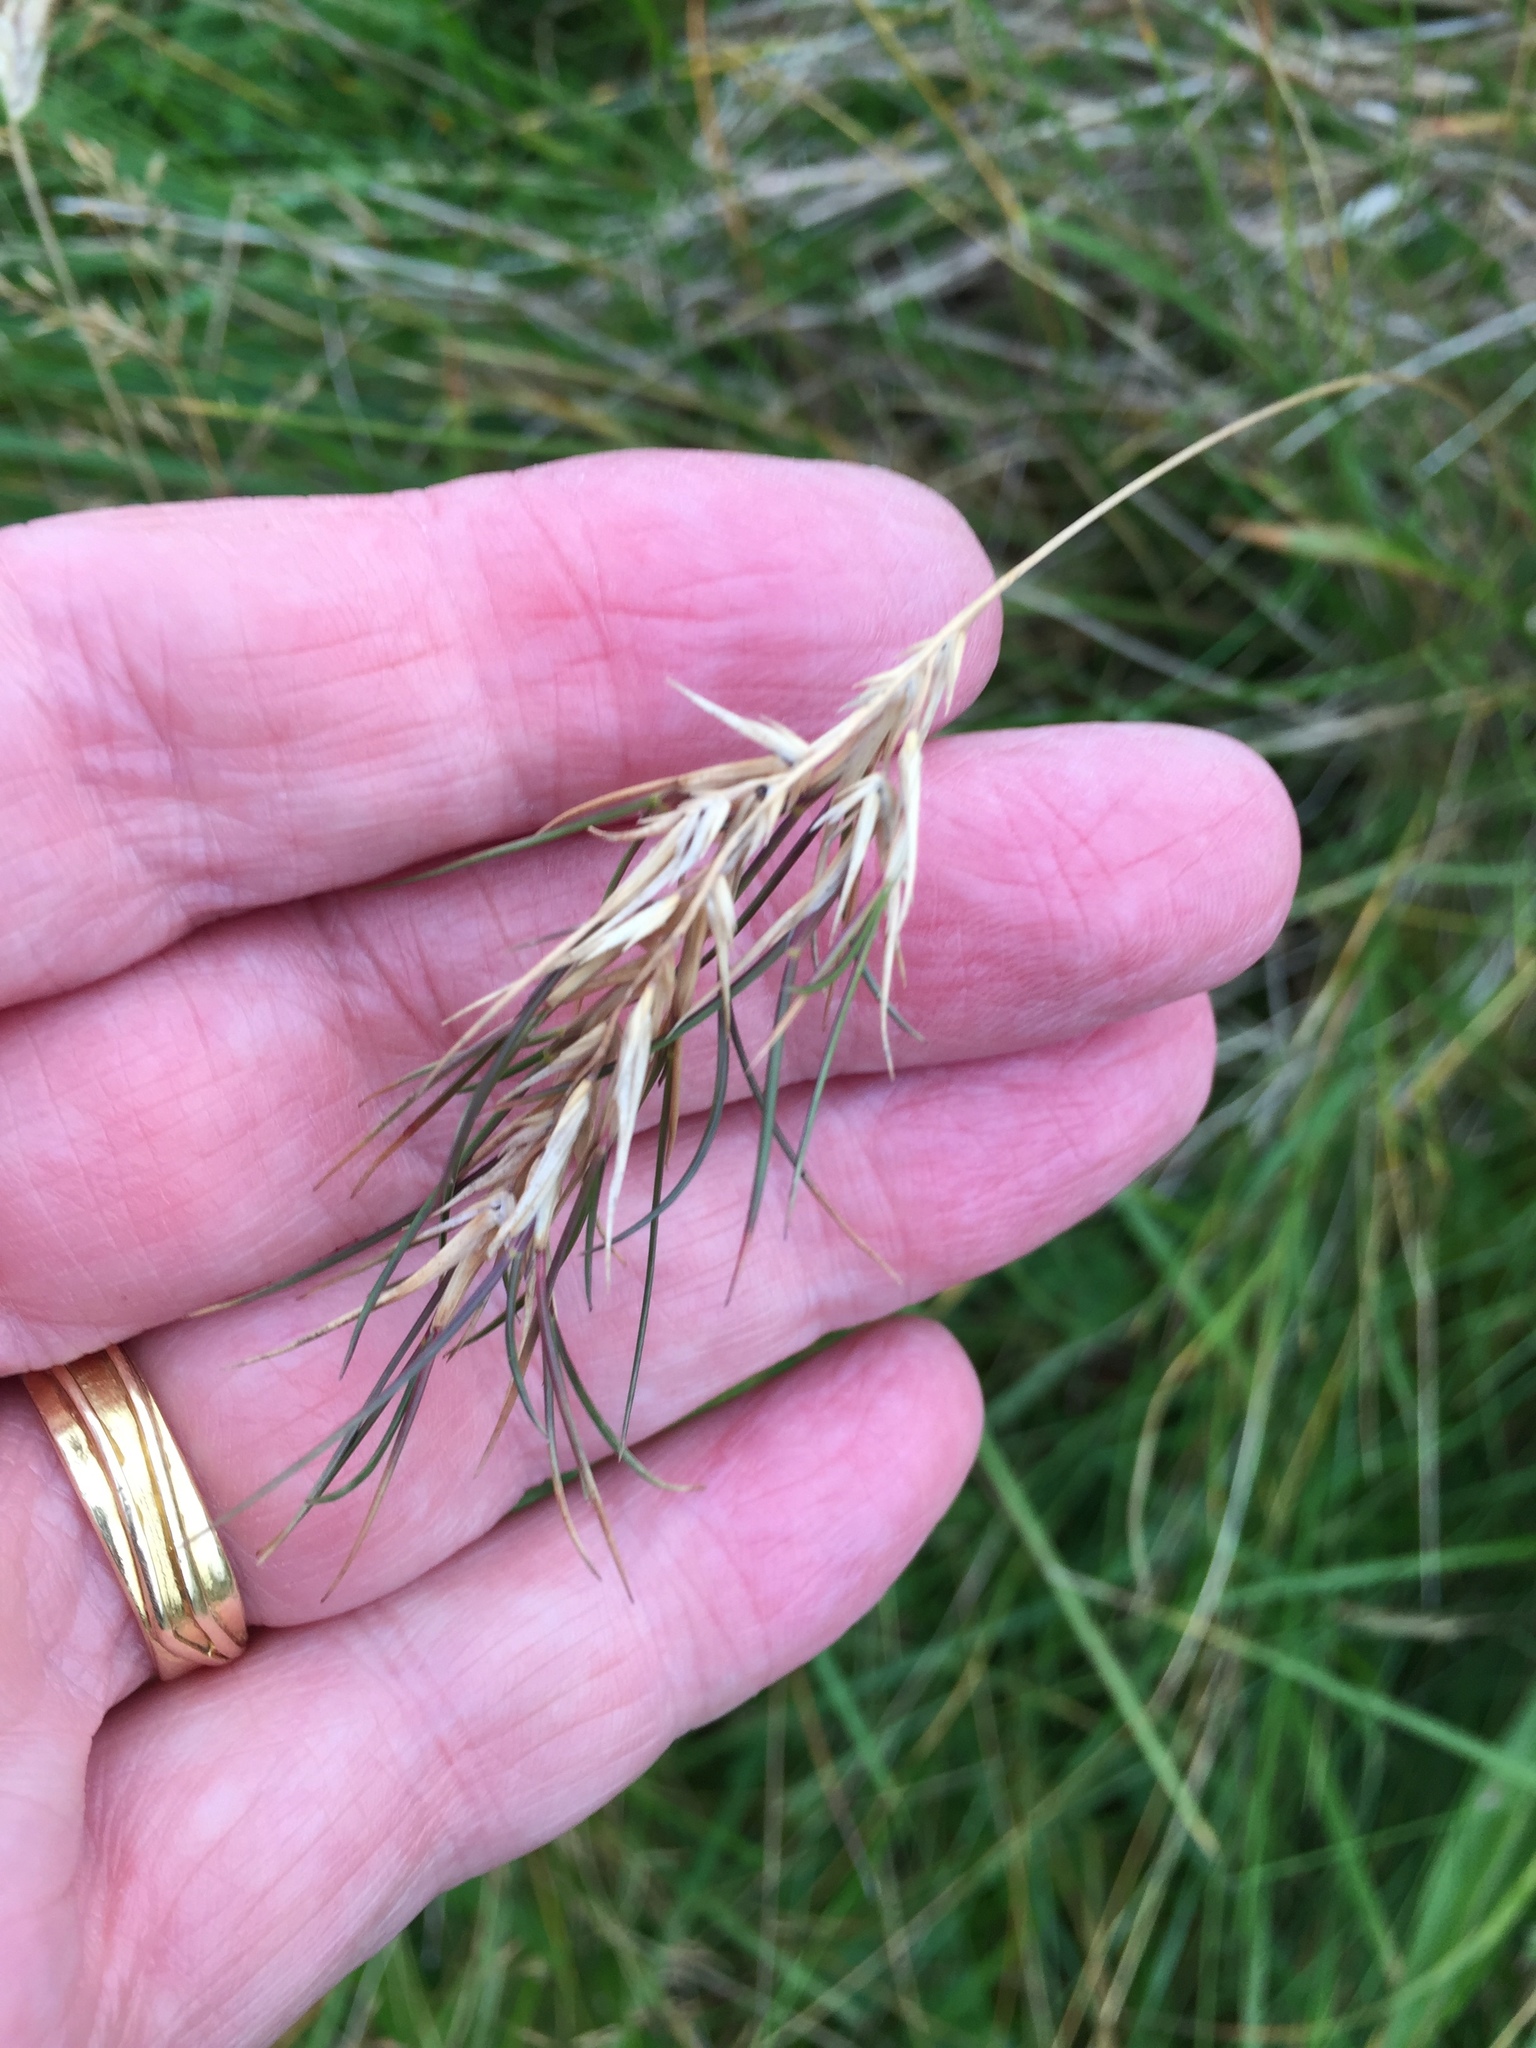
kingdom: Plantae
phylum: Tracheophyta
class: Liliopsida
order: Poales
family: Poaceae
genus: Festuca
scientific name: Festuca vivipara
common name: Viviparous sheep's-fescue
